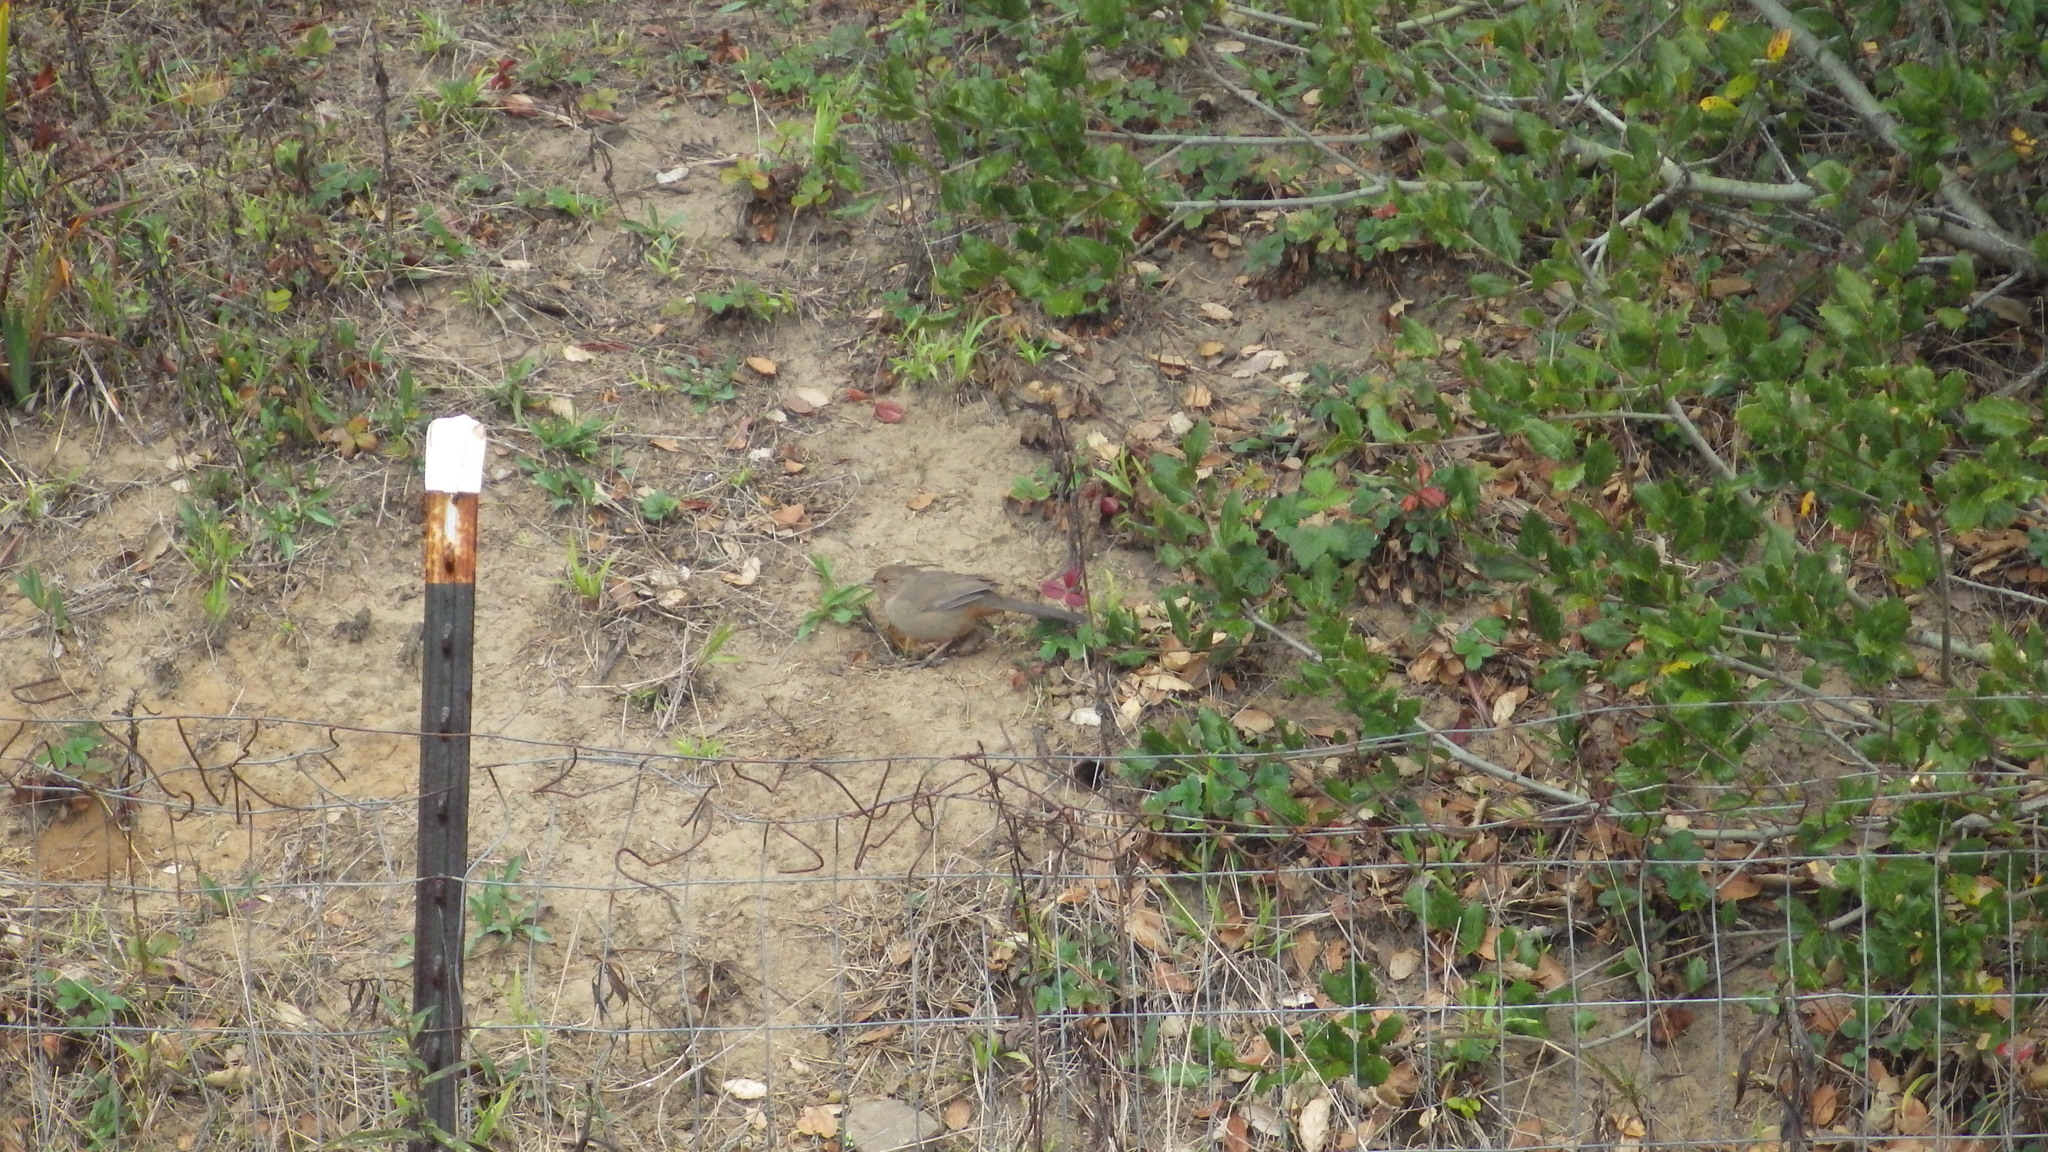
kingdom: Animalia
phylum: Chordata
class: Aves
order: Passeriformes
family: Passerellidae
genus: Melozone
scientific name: Melozone crissalis
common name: California towhee
